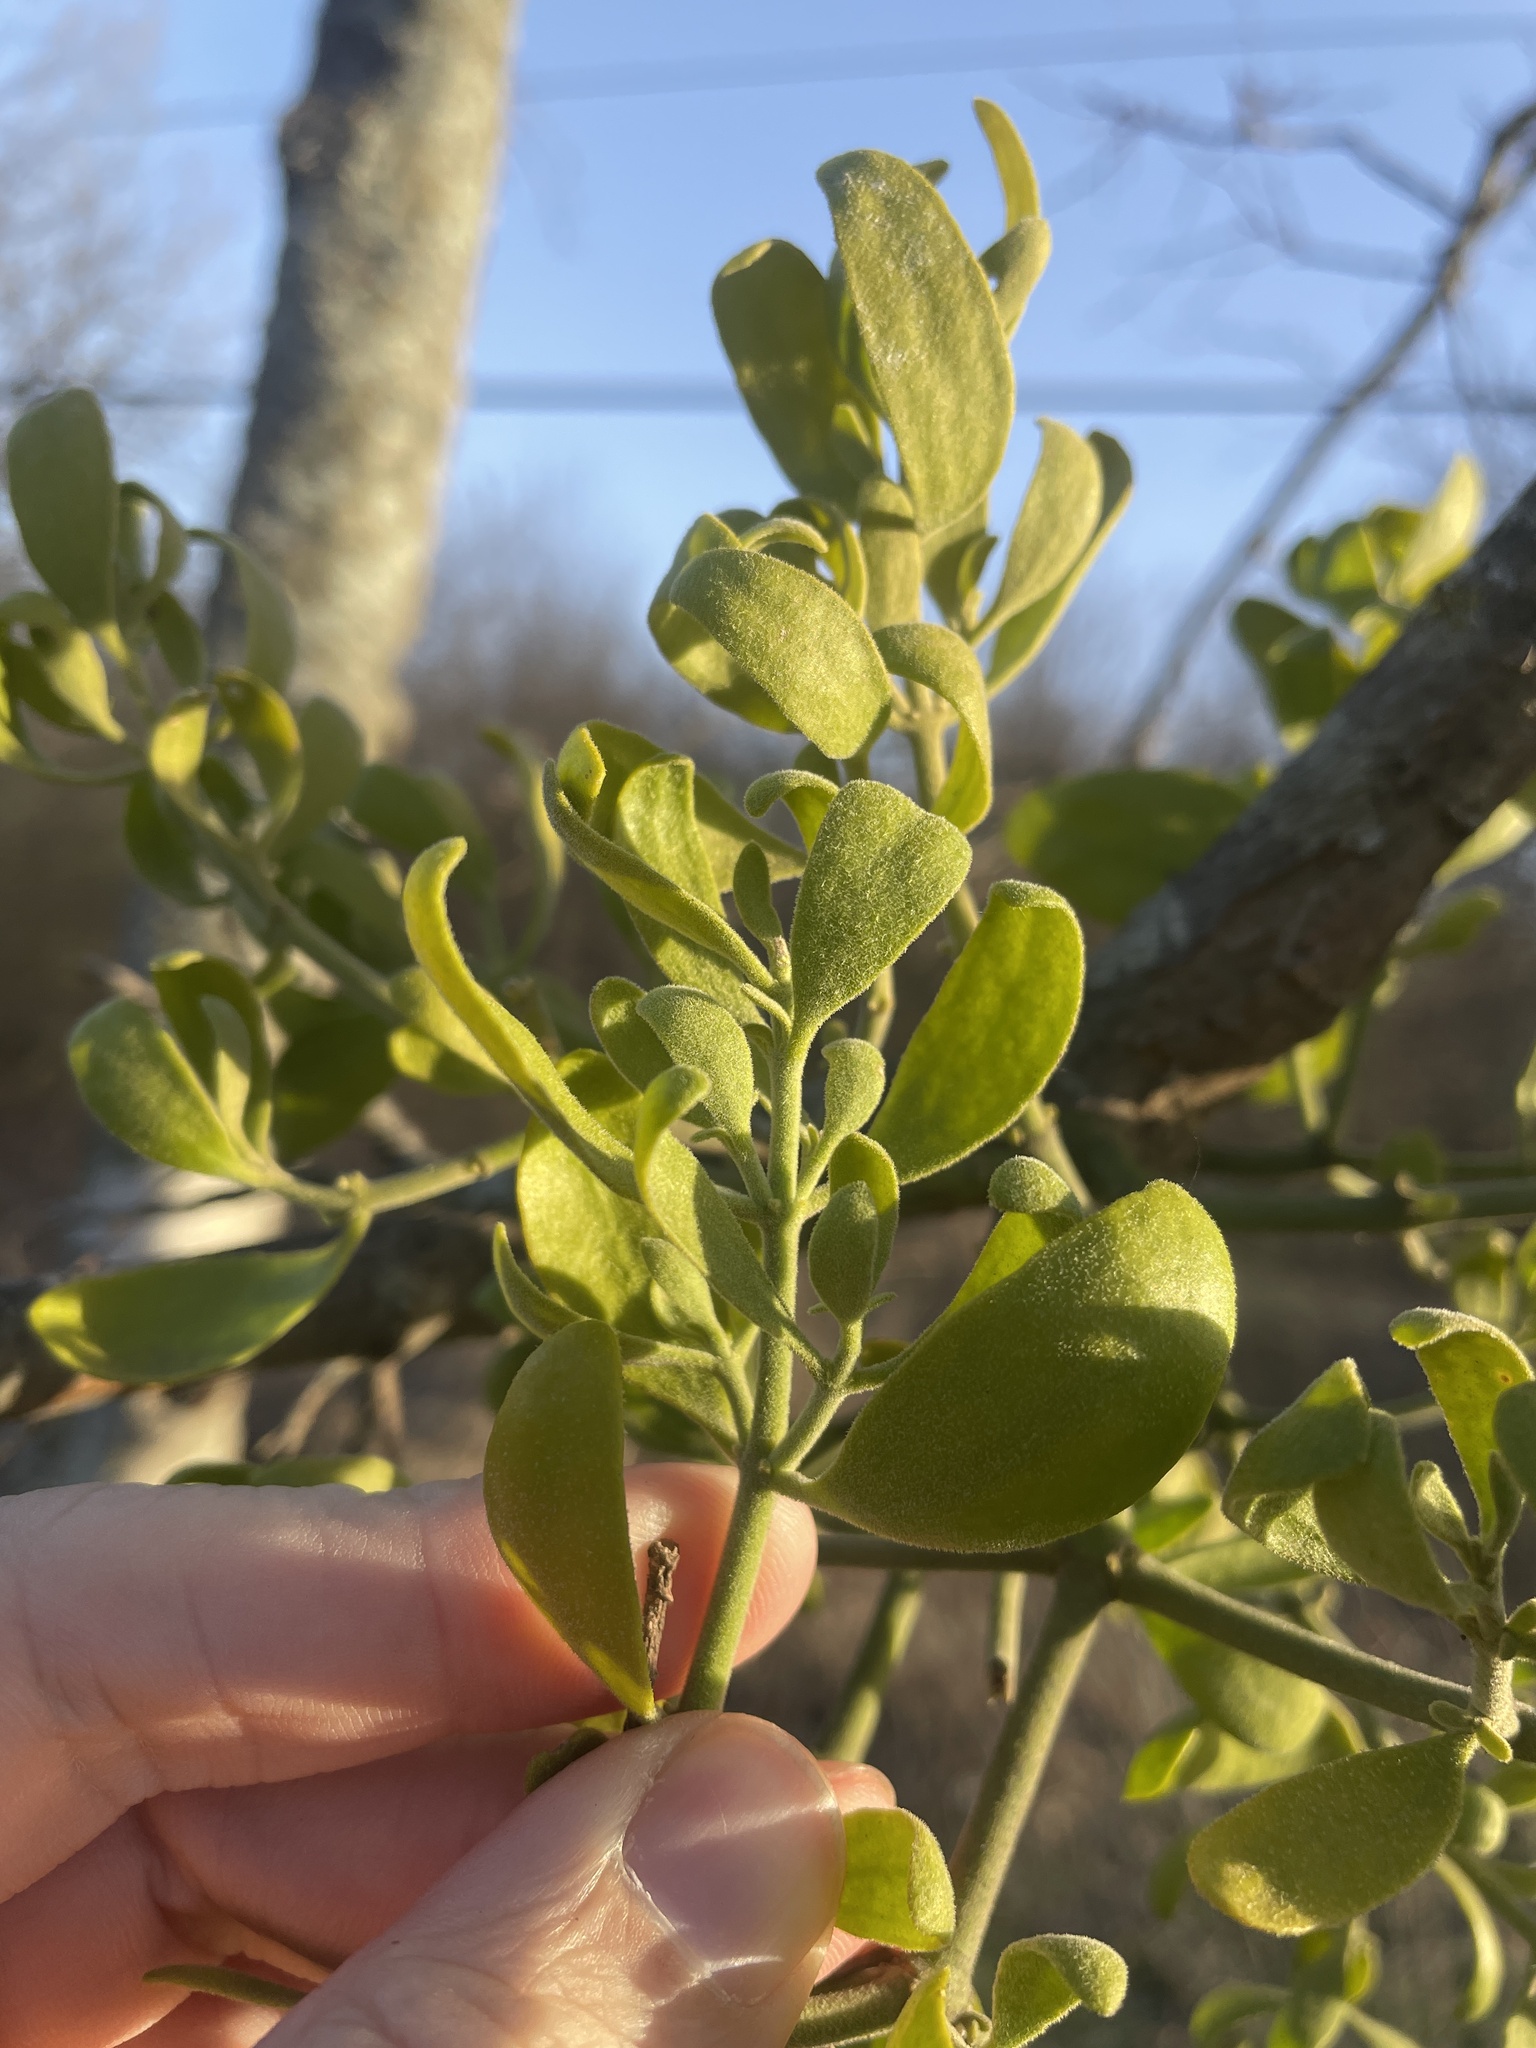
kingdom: Plantae
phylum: Tracheophyta
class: Magnoliopsida
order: Santalales
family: Viscaceae
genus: Phoradendron
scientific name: Phoradendron leucarpum
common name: Pacific mistletoe
